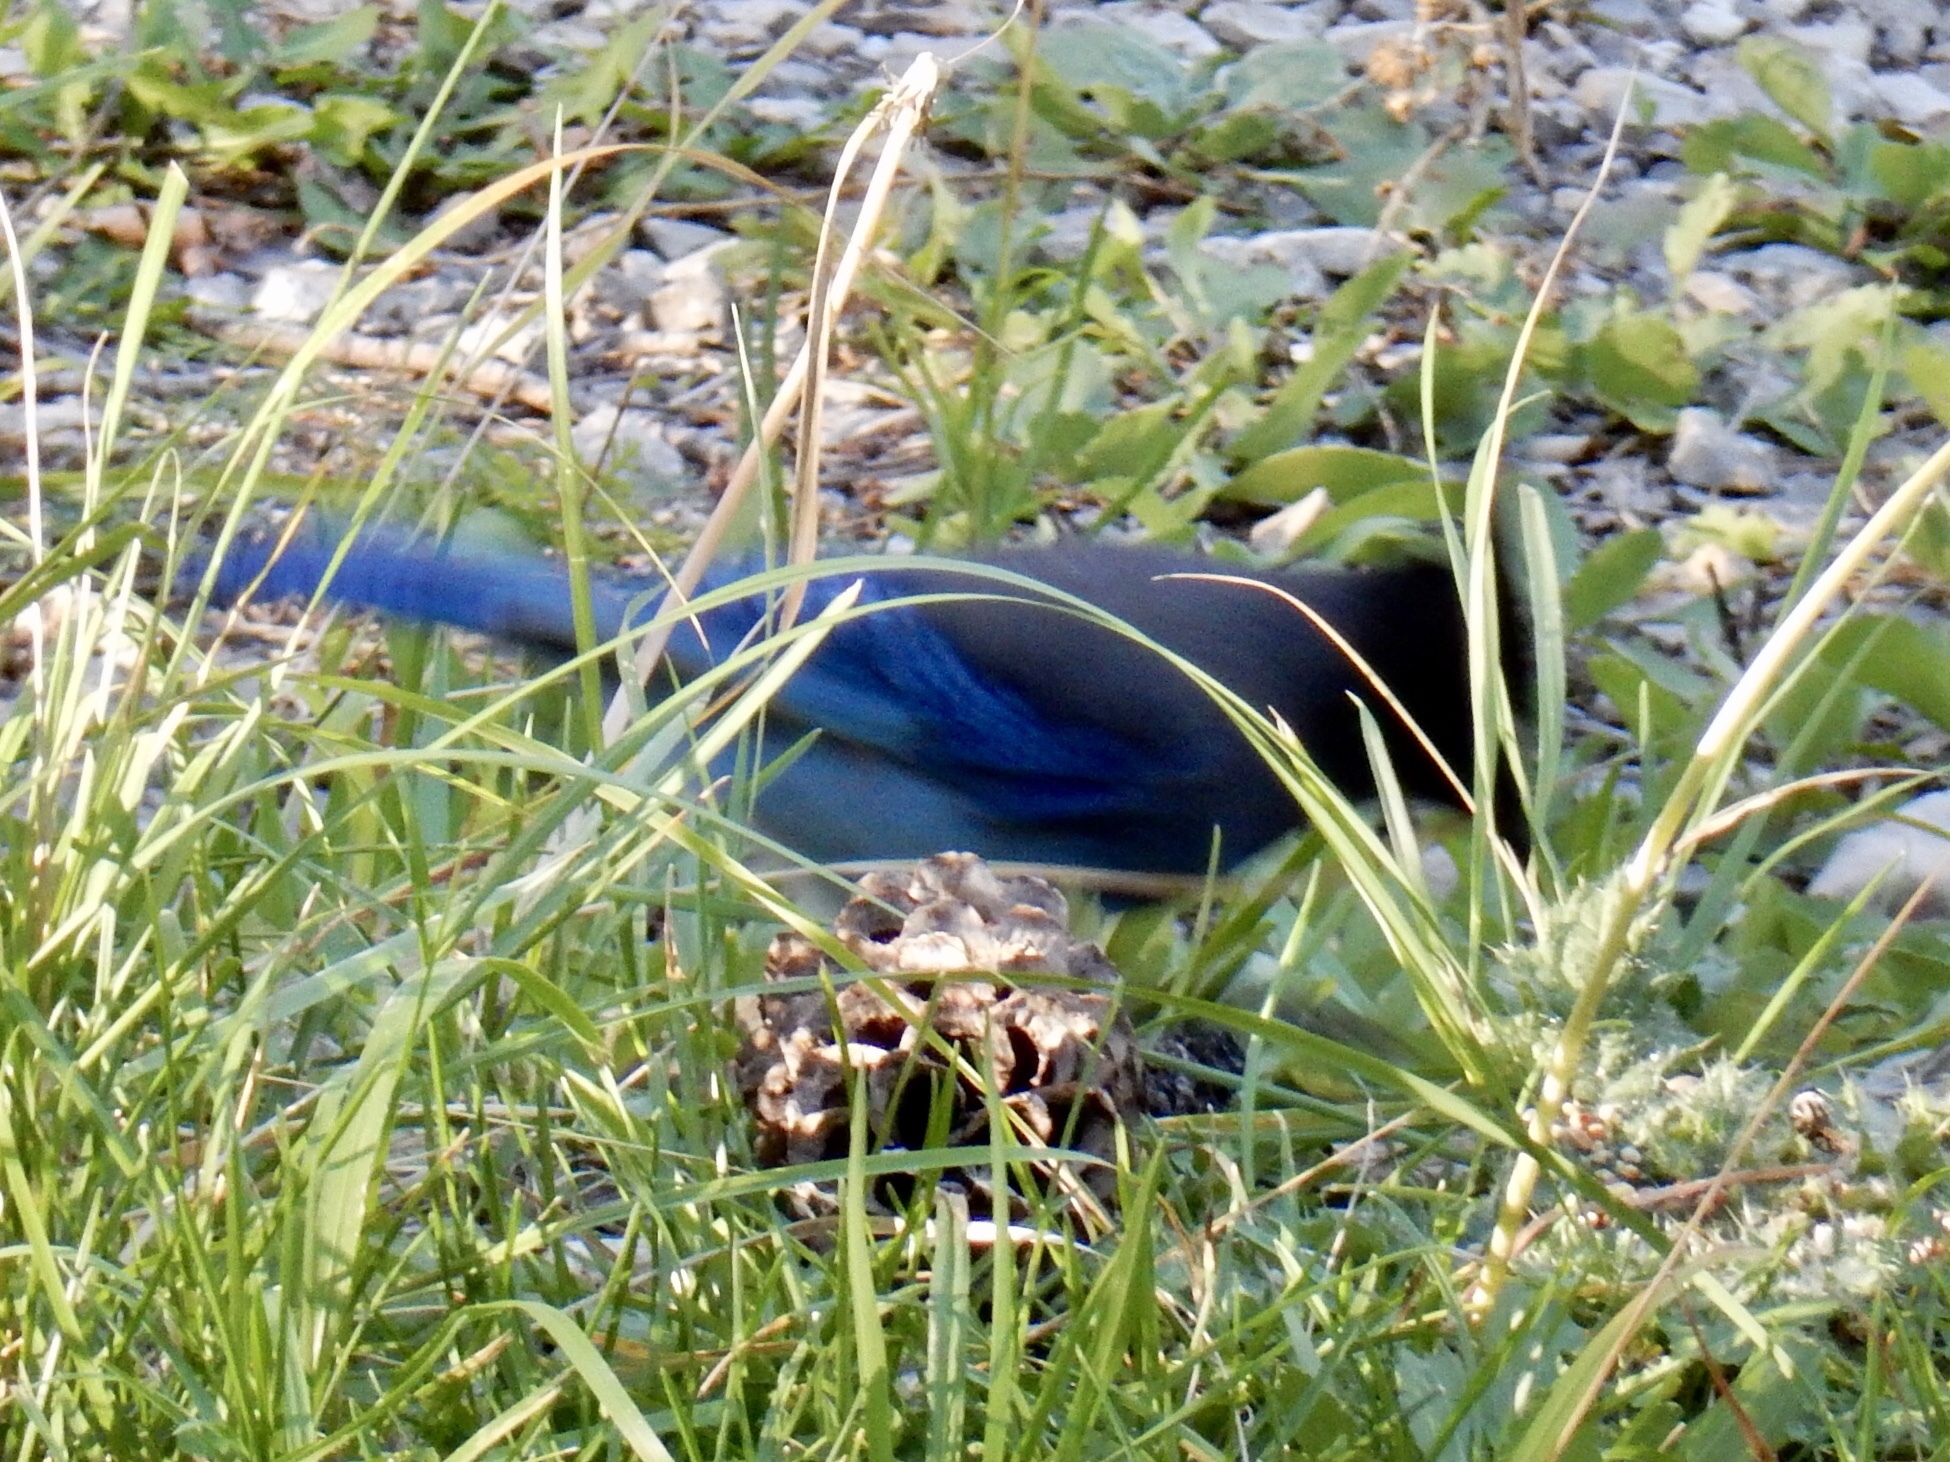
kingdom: Animalia
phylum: Chordata
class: Aves
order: Passeriformes
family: Corvidae
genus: Cyanocitta
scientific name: Cyanocitta stelleri
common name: Steller's jay
